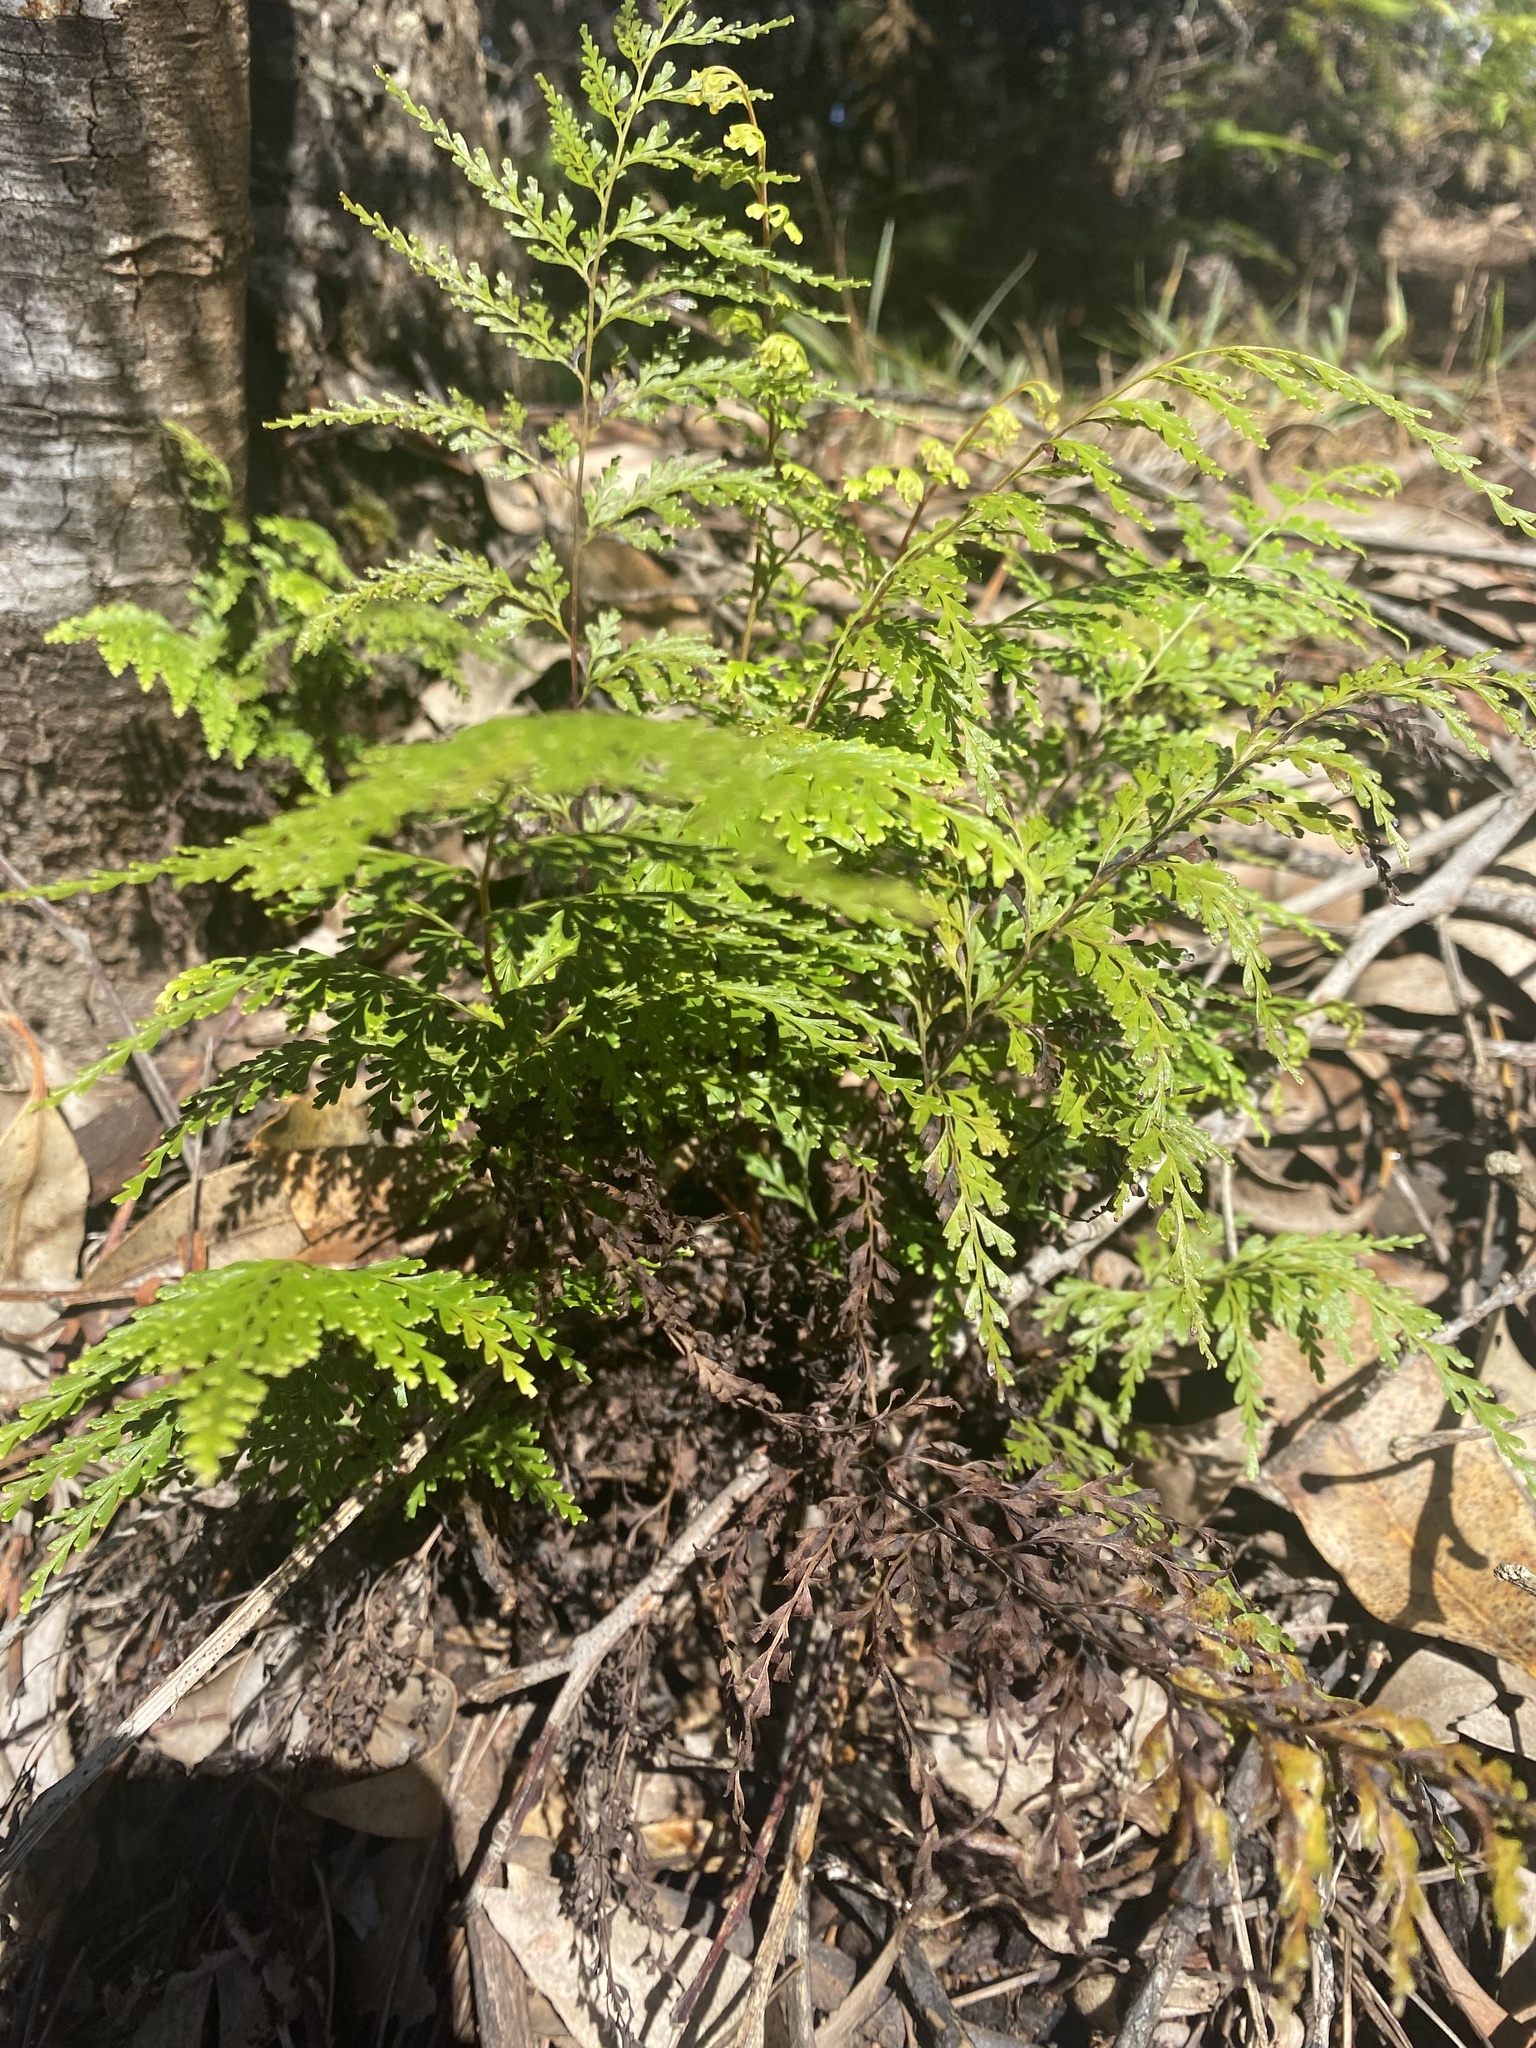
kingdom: Plantae
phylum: Tracheophyta
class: Polypodiopsida
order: Polypodiales
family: Lindsaeaceae
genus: Odontosoria
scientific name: Odontosoria chinensis
